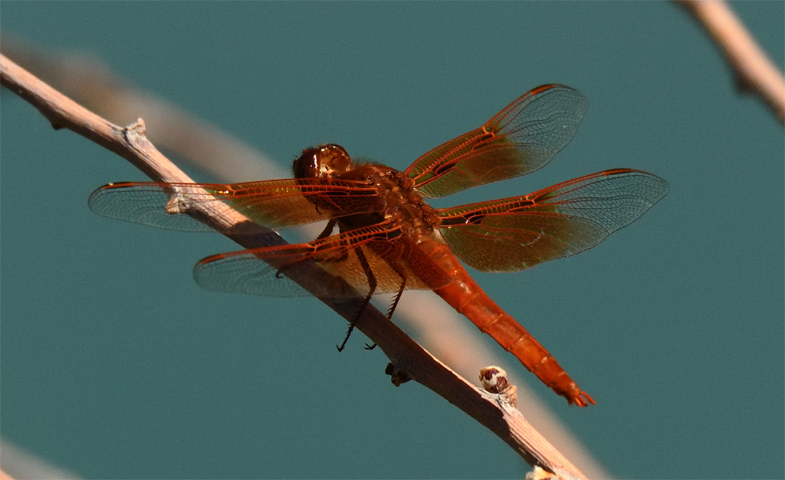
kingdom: Animalia
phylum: Arthropoda
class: Insecta
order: Odonata
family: Libellulidae
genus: Libellula
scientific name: Libellula saturata
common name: Flame skimmer
